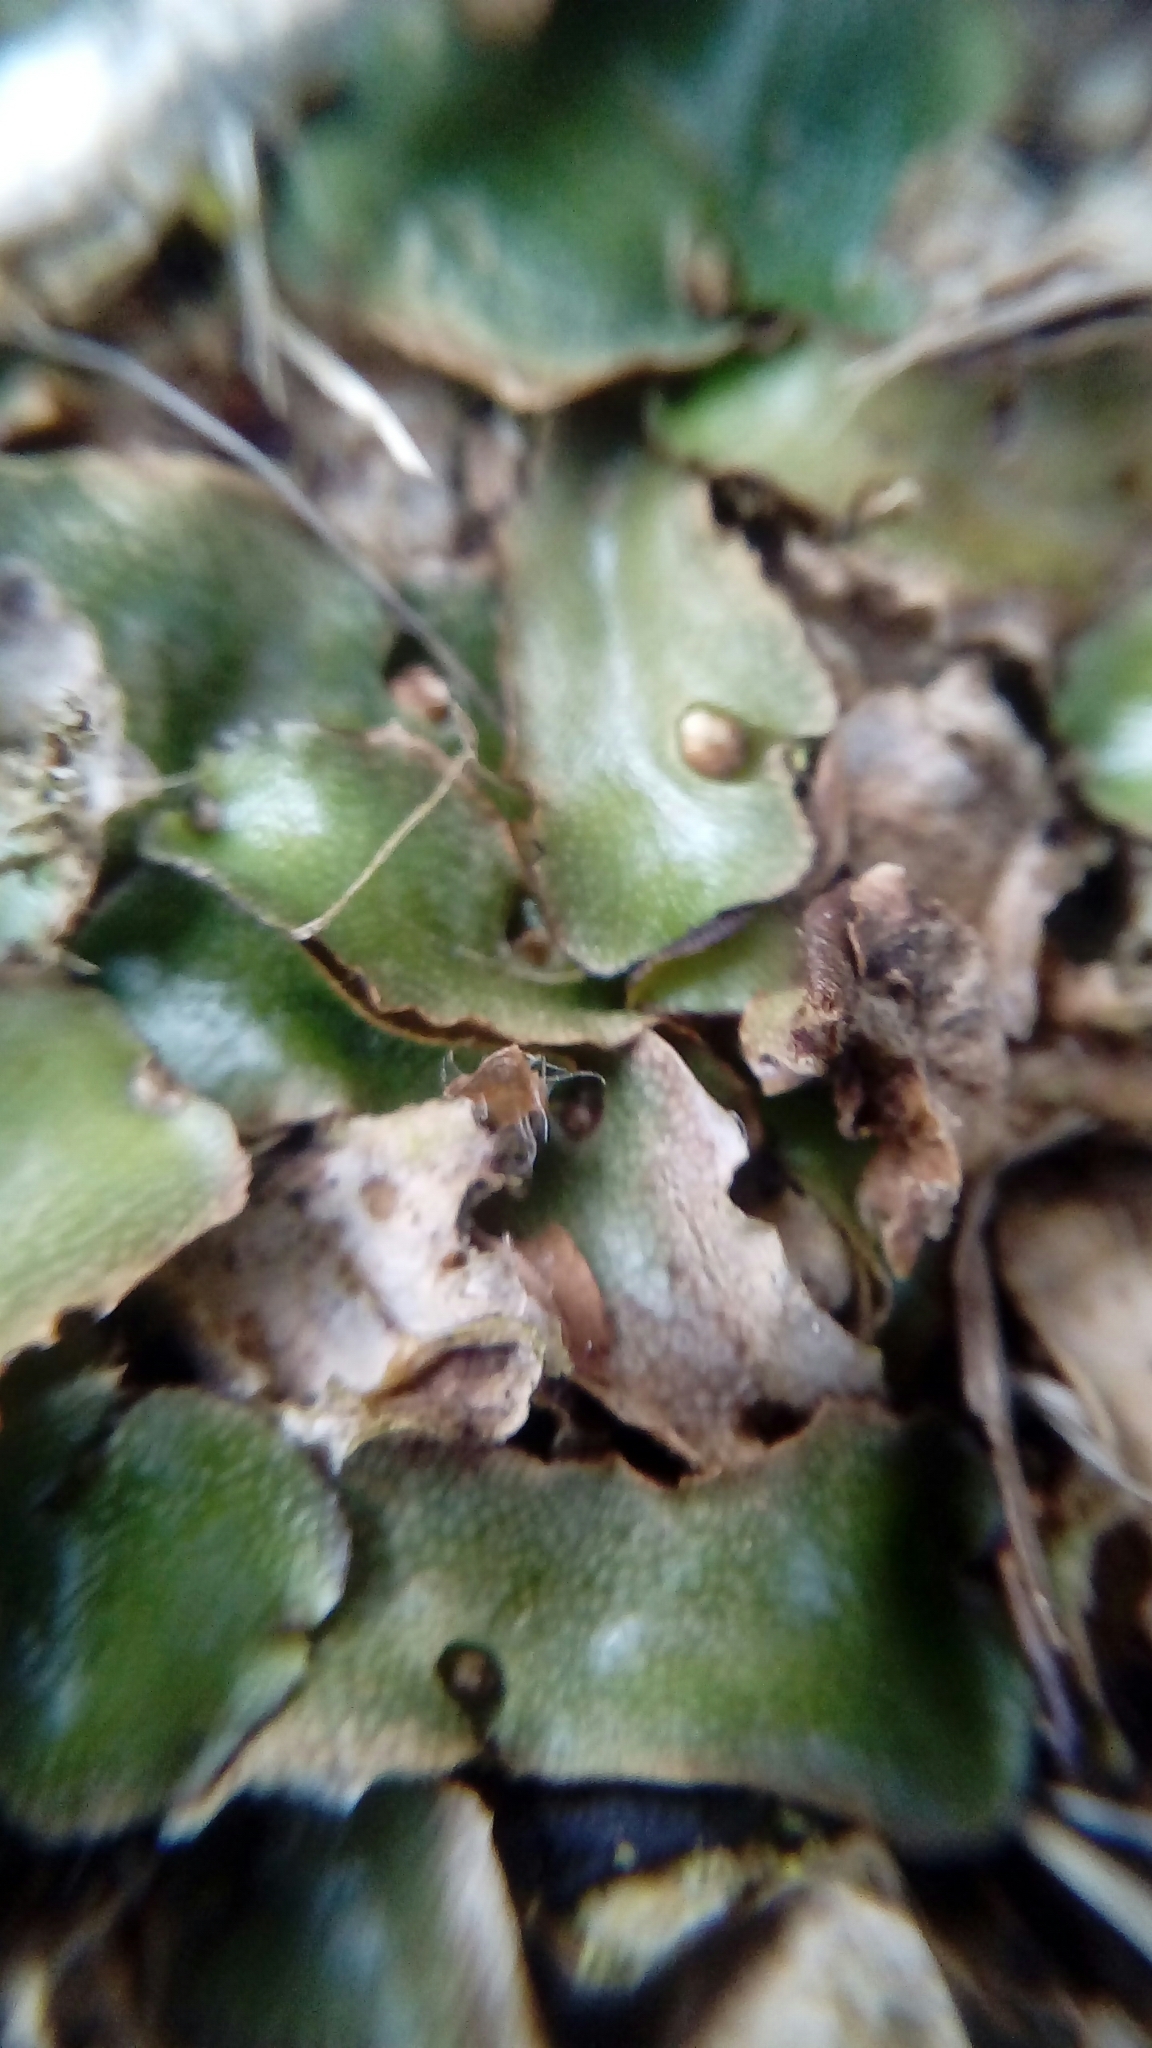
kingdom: Plantae
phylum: Marchantiophyta
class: Marchantiopsida
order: Lunulariales
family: Lunulariaceae
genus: Lunularia
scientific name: Lunularia cruciata
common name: Crescent-cup liverwort
